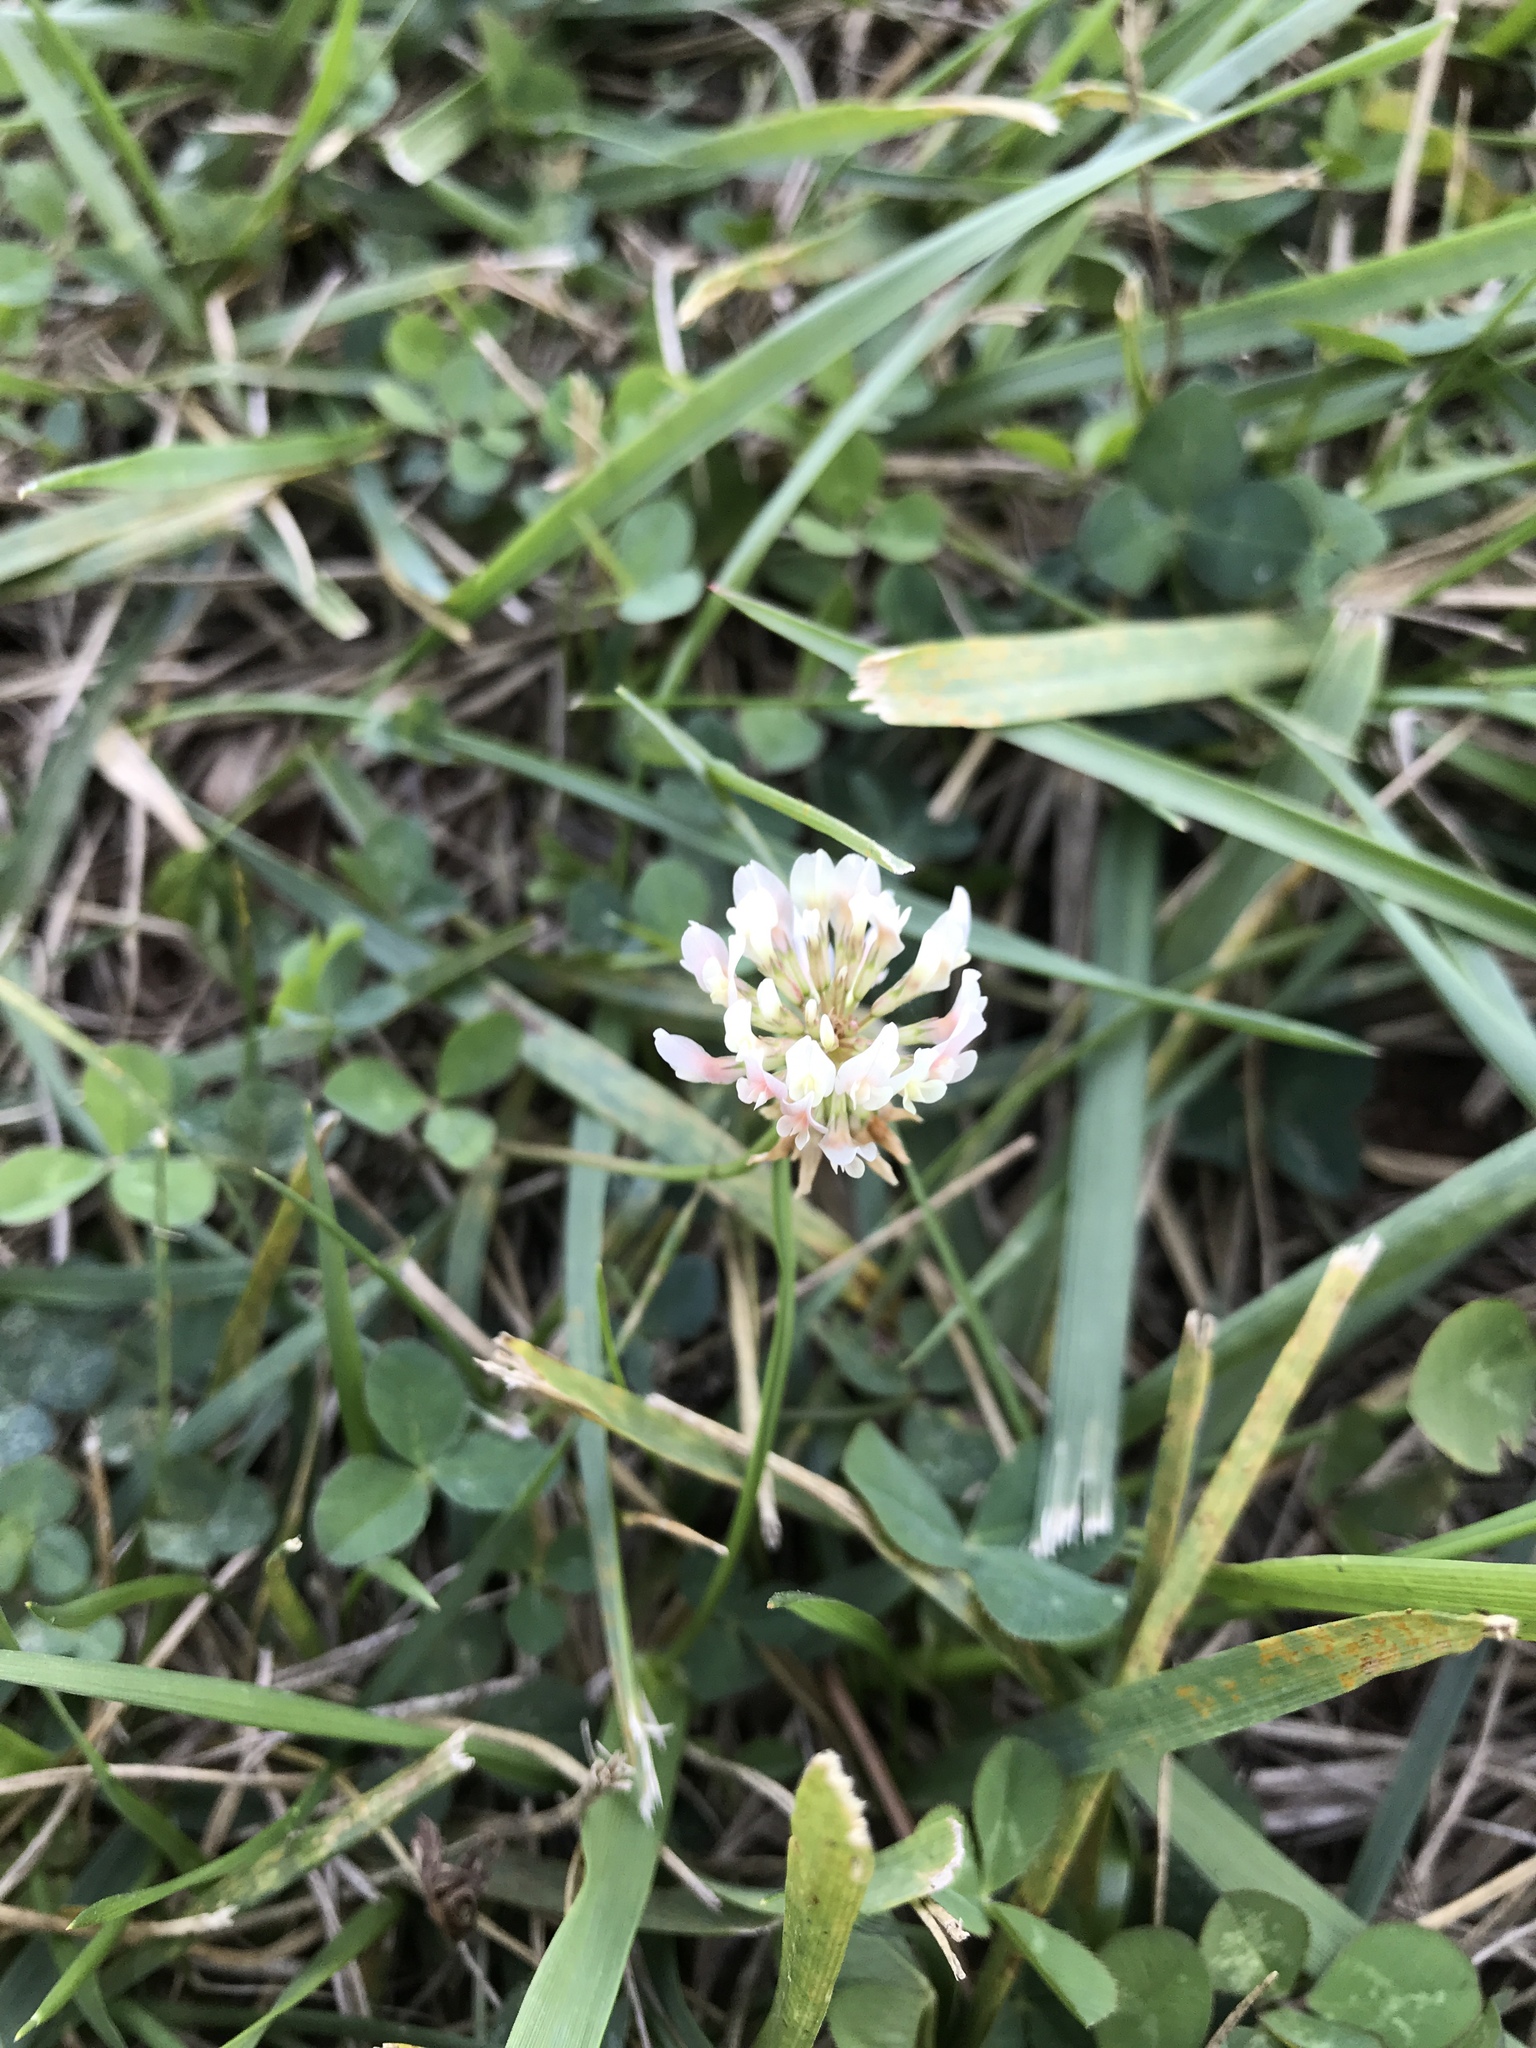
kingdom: Plantae
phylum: Tracheophyta
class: Magnoliopsida
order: Fabales
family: Fabaceae
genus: Trifolium
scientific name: Trifolium repens
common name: White clover
